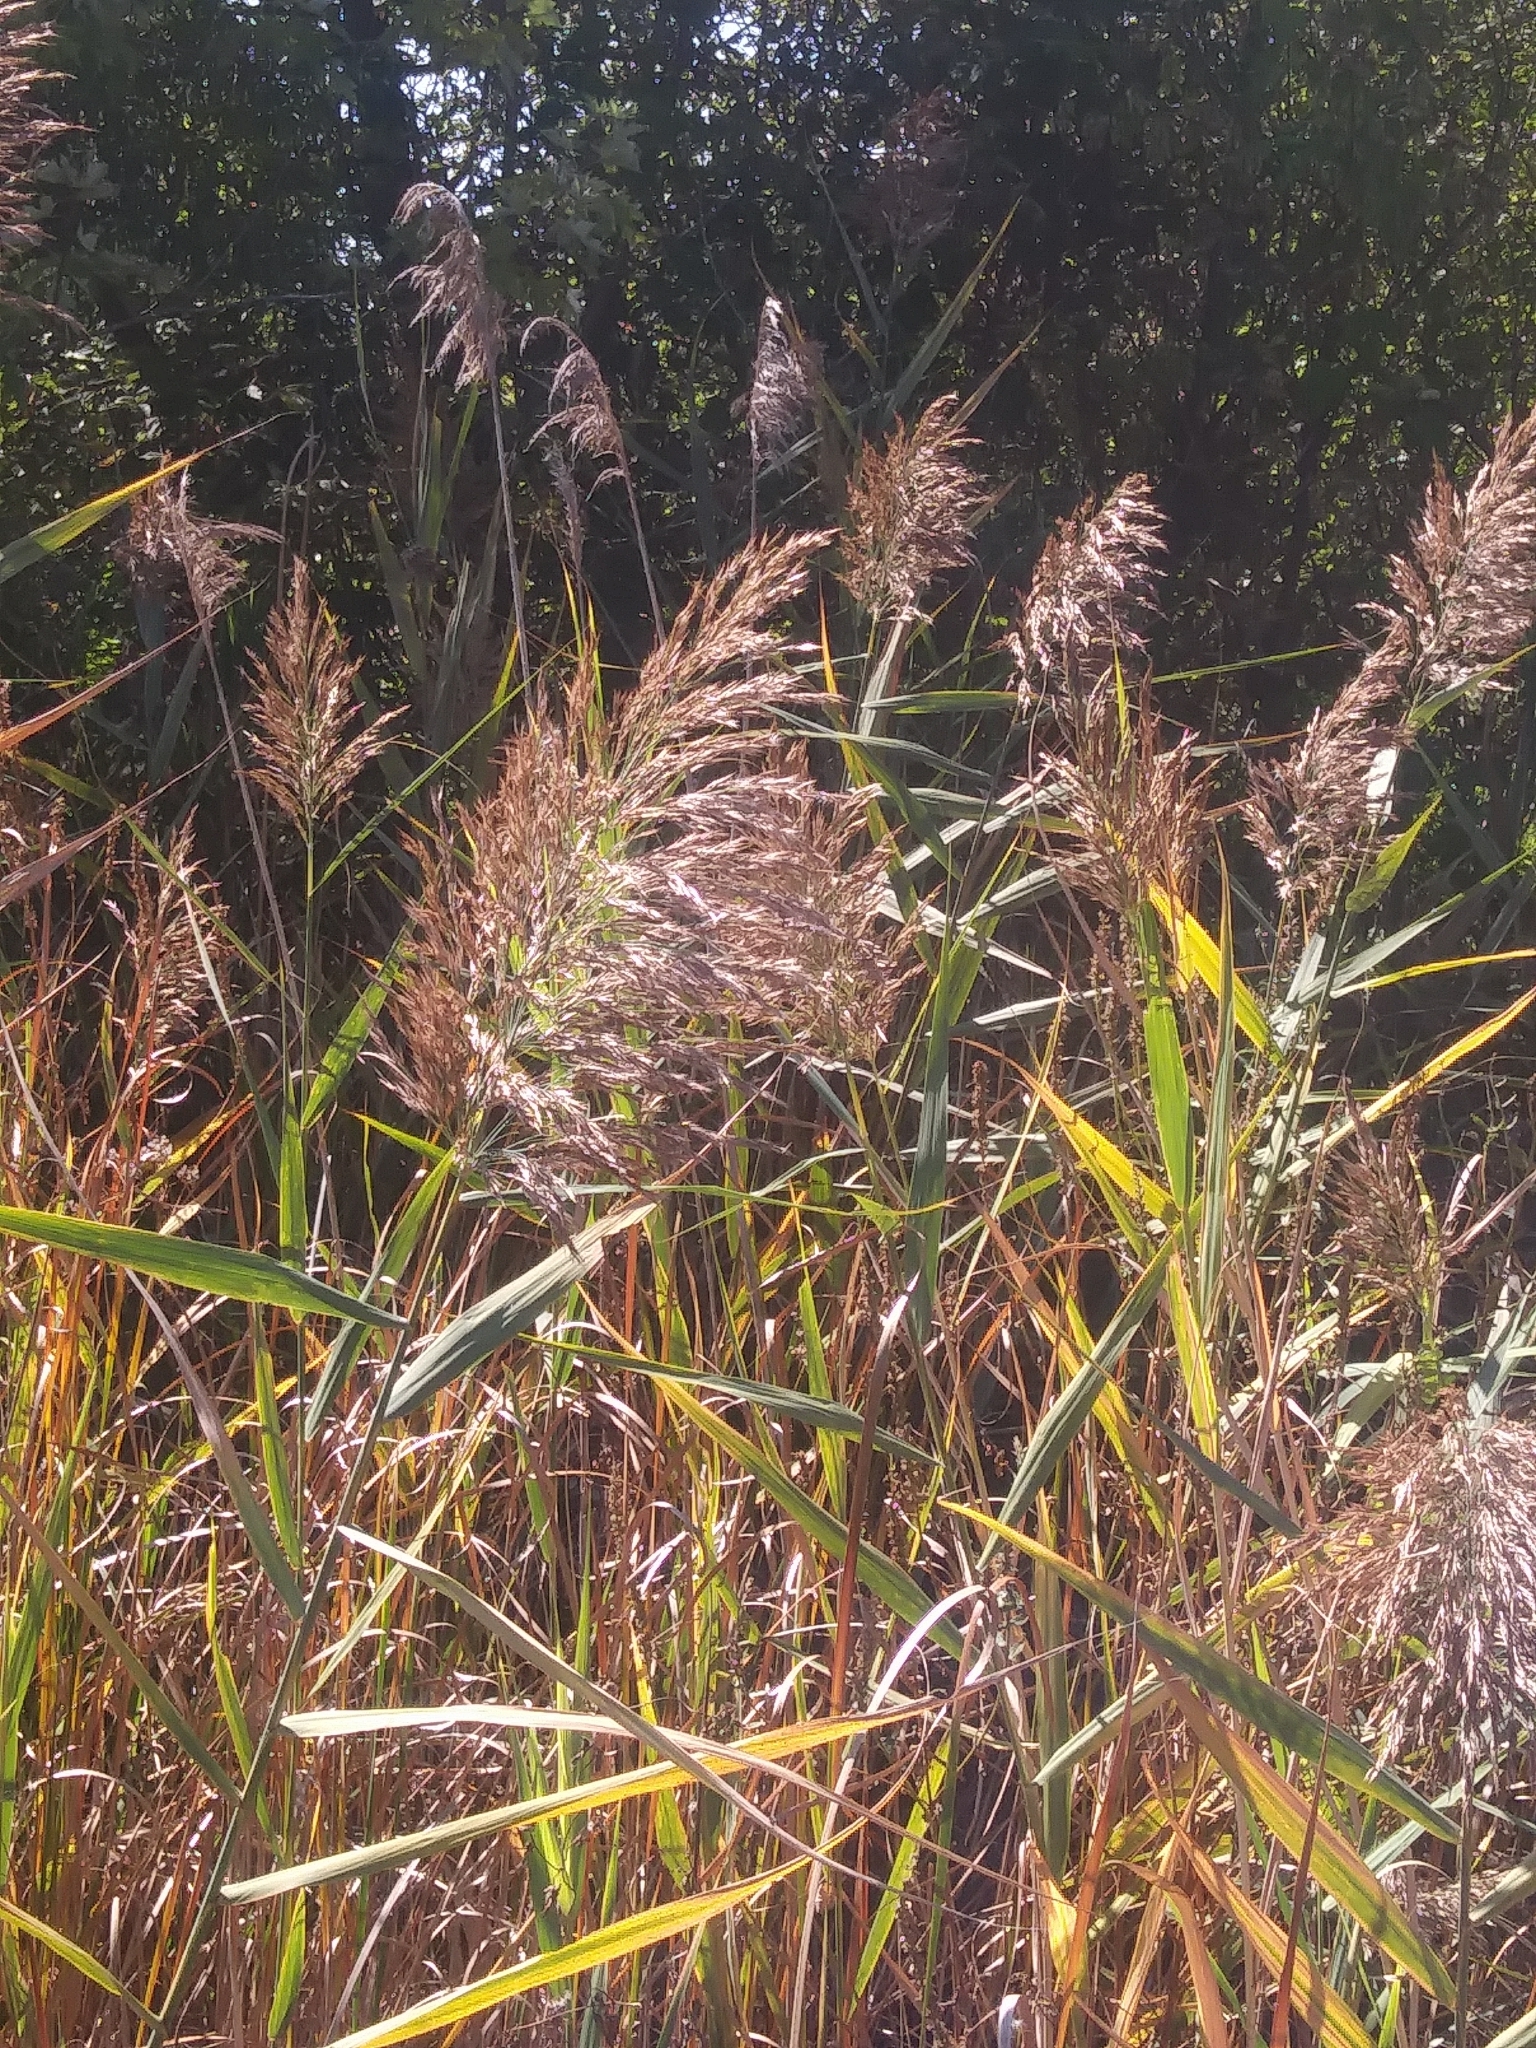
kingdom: Plantae
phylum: Tracheophyta
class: Liliopsida
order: Poales
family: Poaceae
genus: Phragmites
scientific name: Phragmites australis
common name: Common reed
